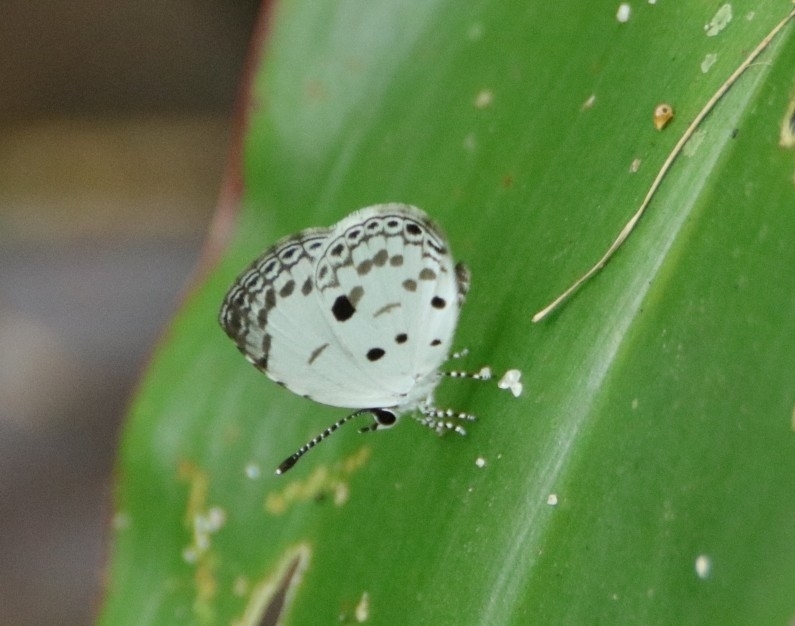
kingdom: Animalia
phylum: Arthropoda
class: Insecta
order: Lepidoptera
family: Lycaenidae
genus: Neopithecops
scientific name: Neopithecops zalmora
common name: Quaker
